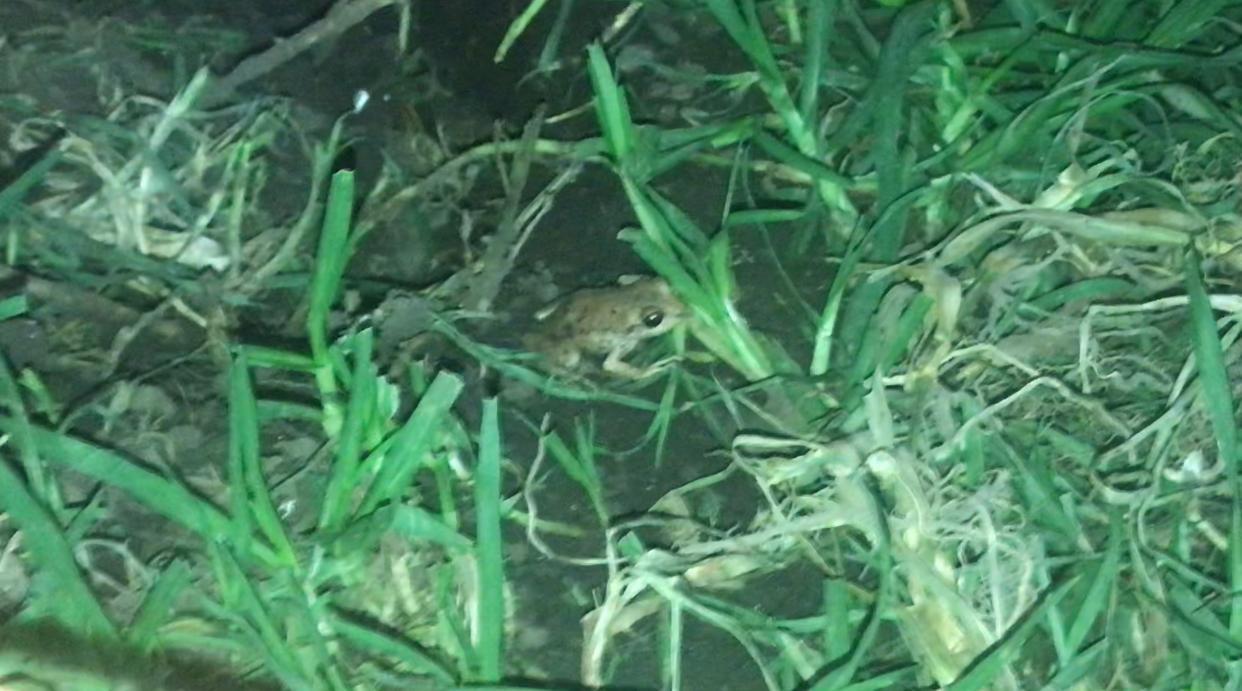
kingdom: Animalia
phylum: Chordata
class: Amphibia
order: Anura
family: Craugastoridae
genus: Pristimantis
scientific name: Pristimantis unistrigatus
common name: Striped robber frog
